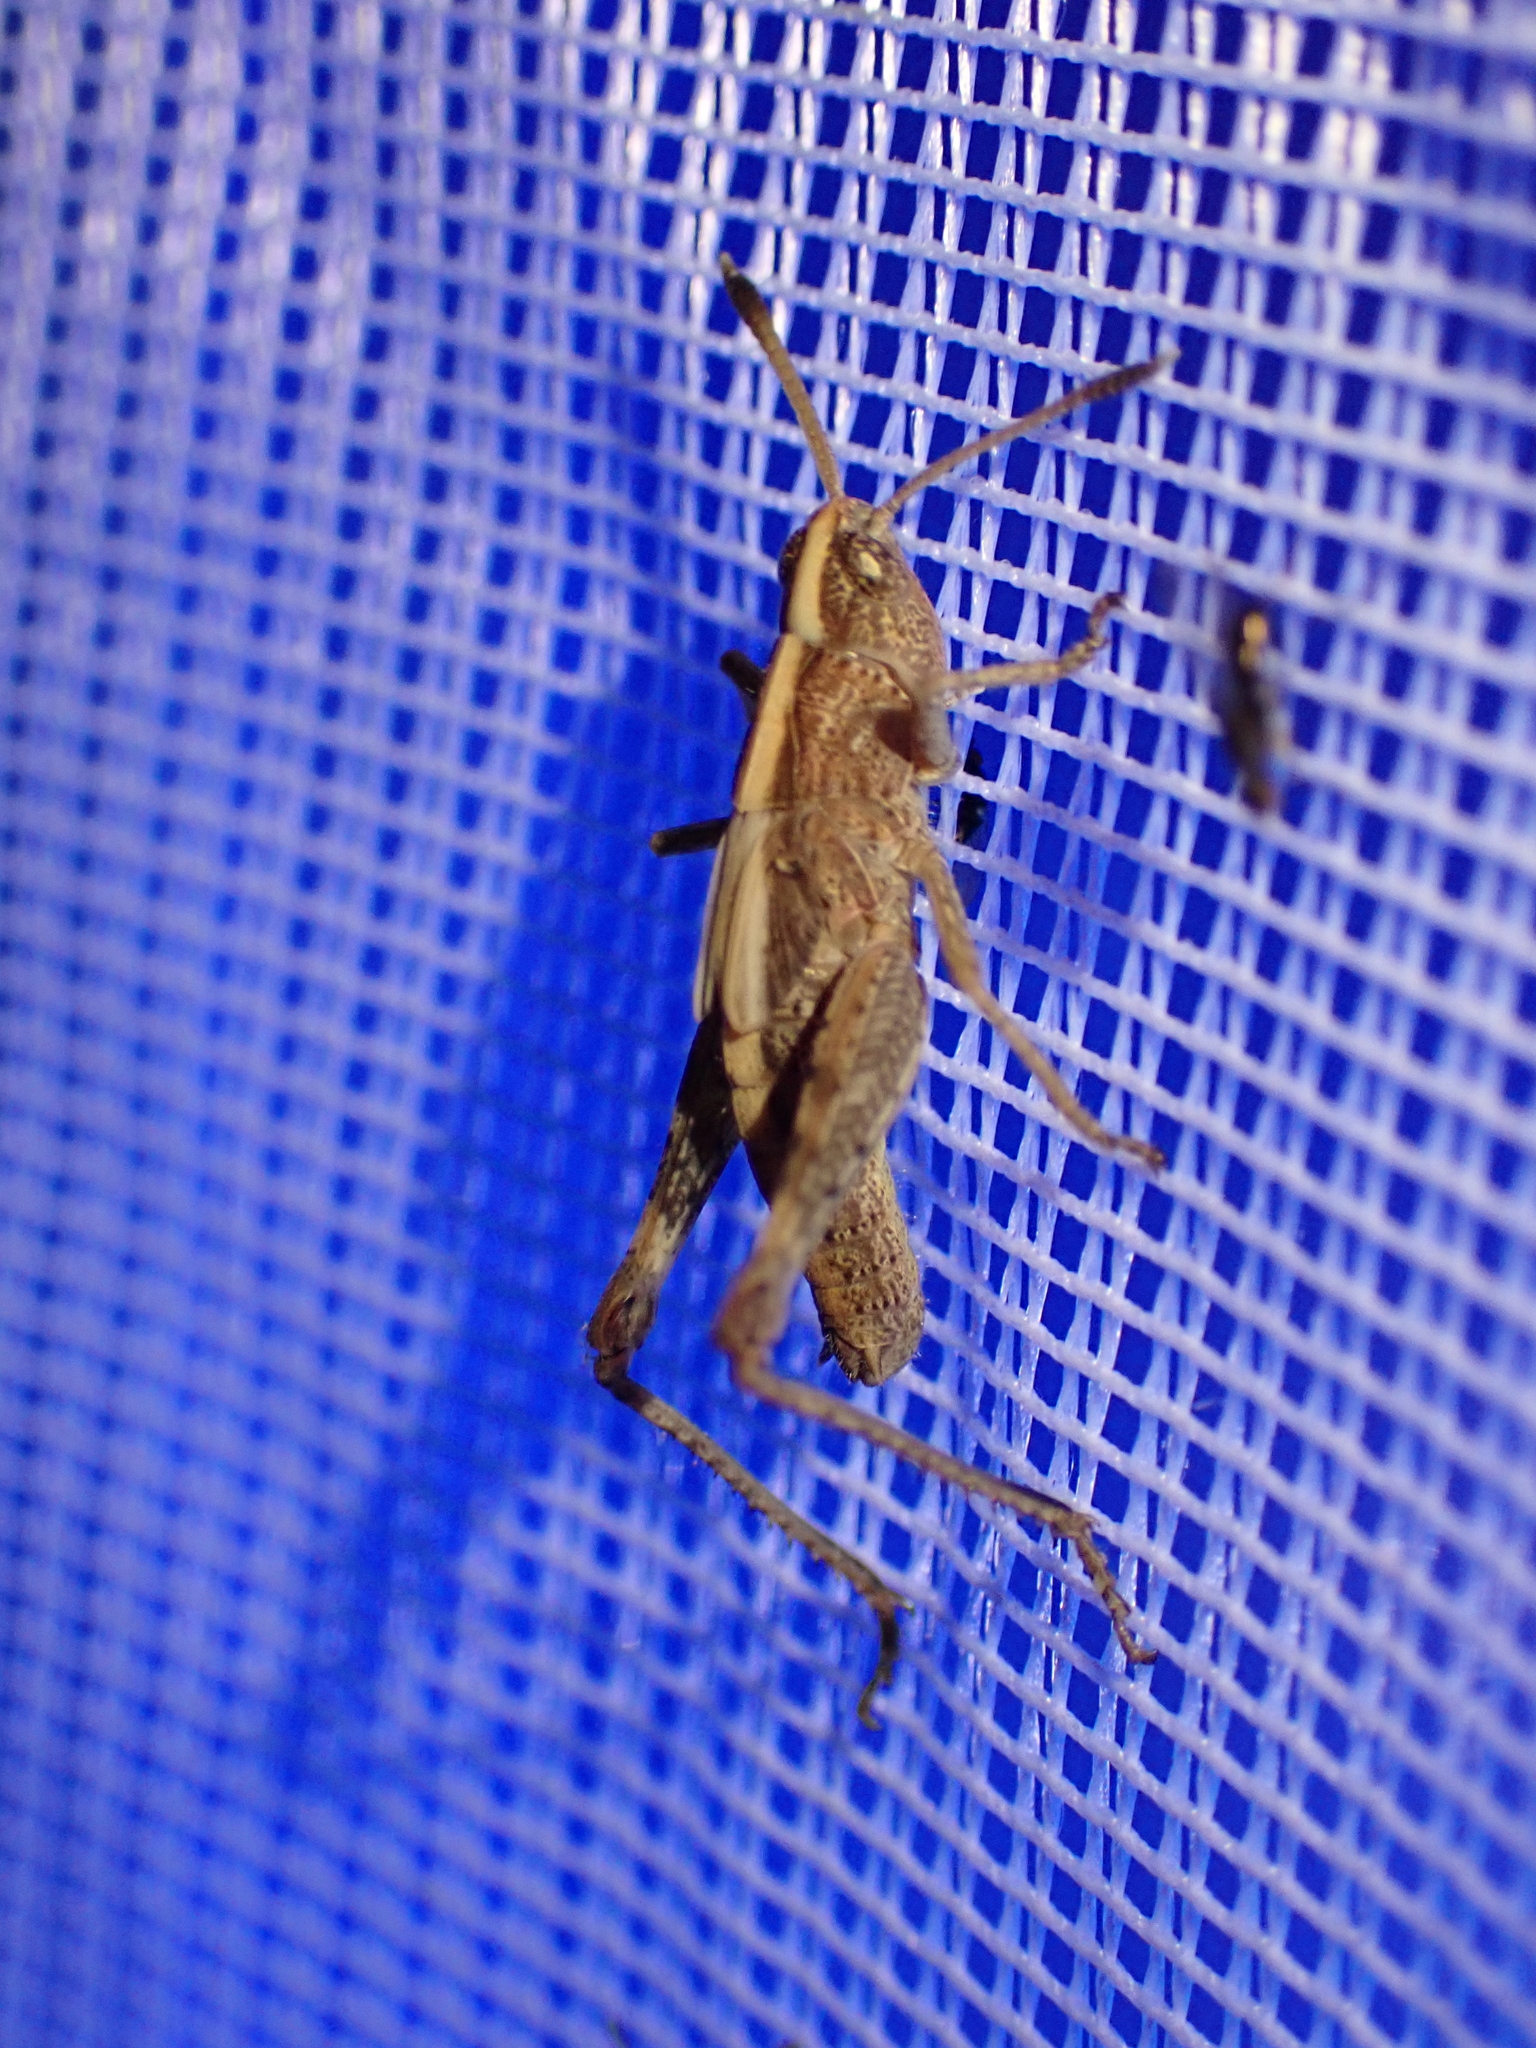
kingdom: Animalia
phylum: Arthropoda
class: Insecta
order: Orthoptera
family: Acrididae
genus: Gomphocerippus
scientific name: Gomphocerippus rufus
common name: Rufous grasshopper
